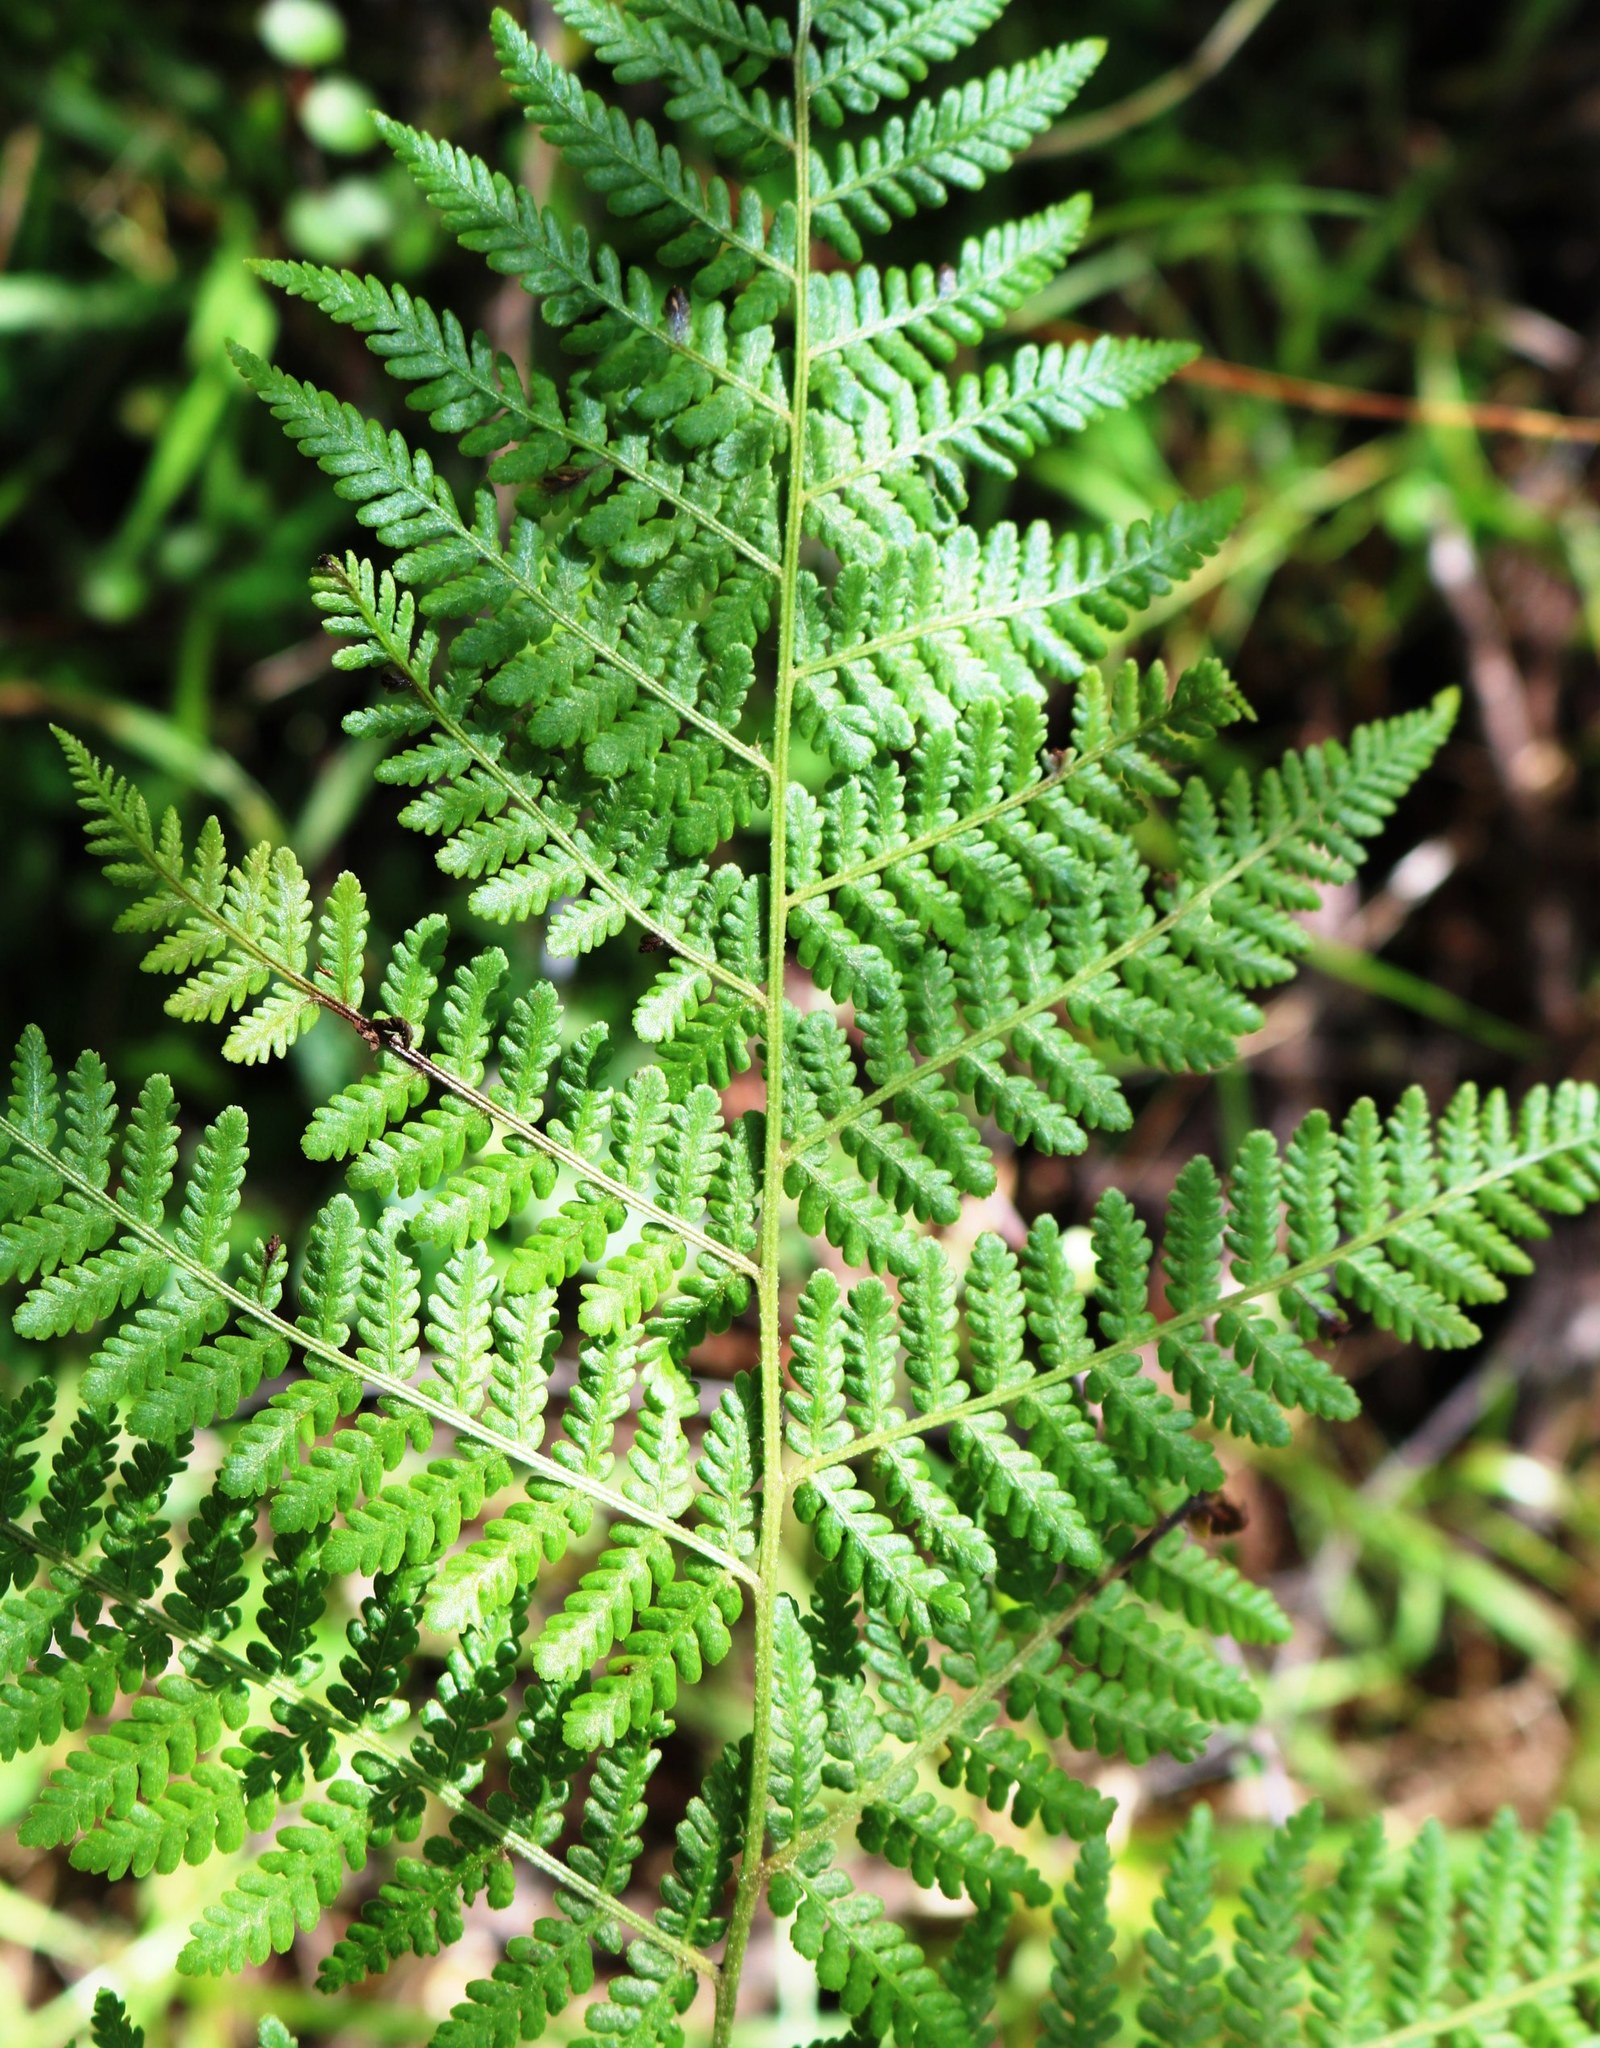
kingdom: Plantae
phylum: Tracheophyta
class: Polypodiopsida
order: Polypodiales
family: Dennstaedtiaceae
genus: Hypolepis
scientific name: Hypolepis ambigua
